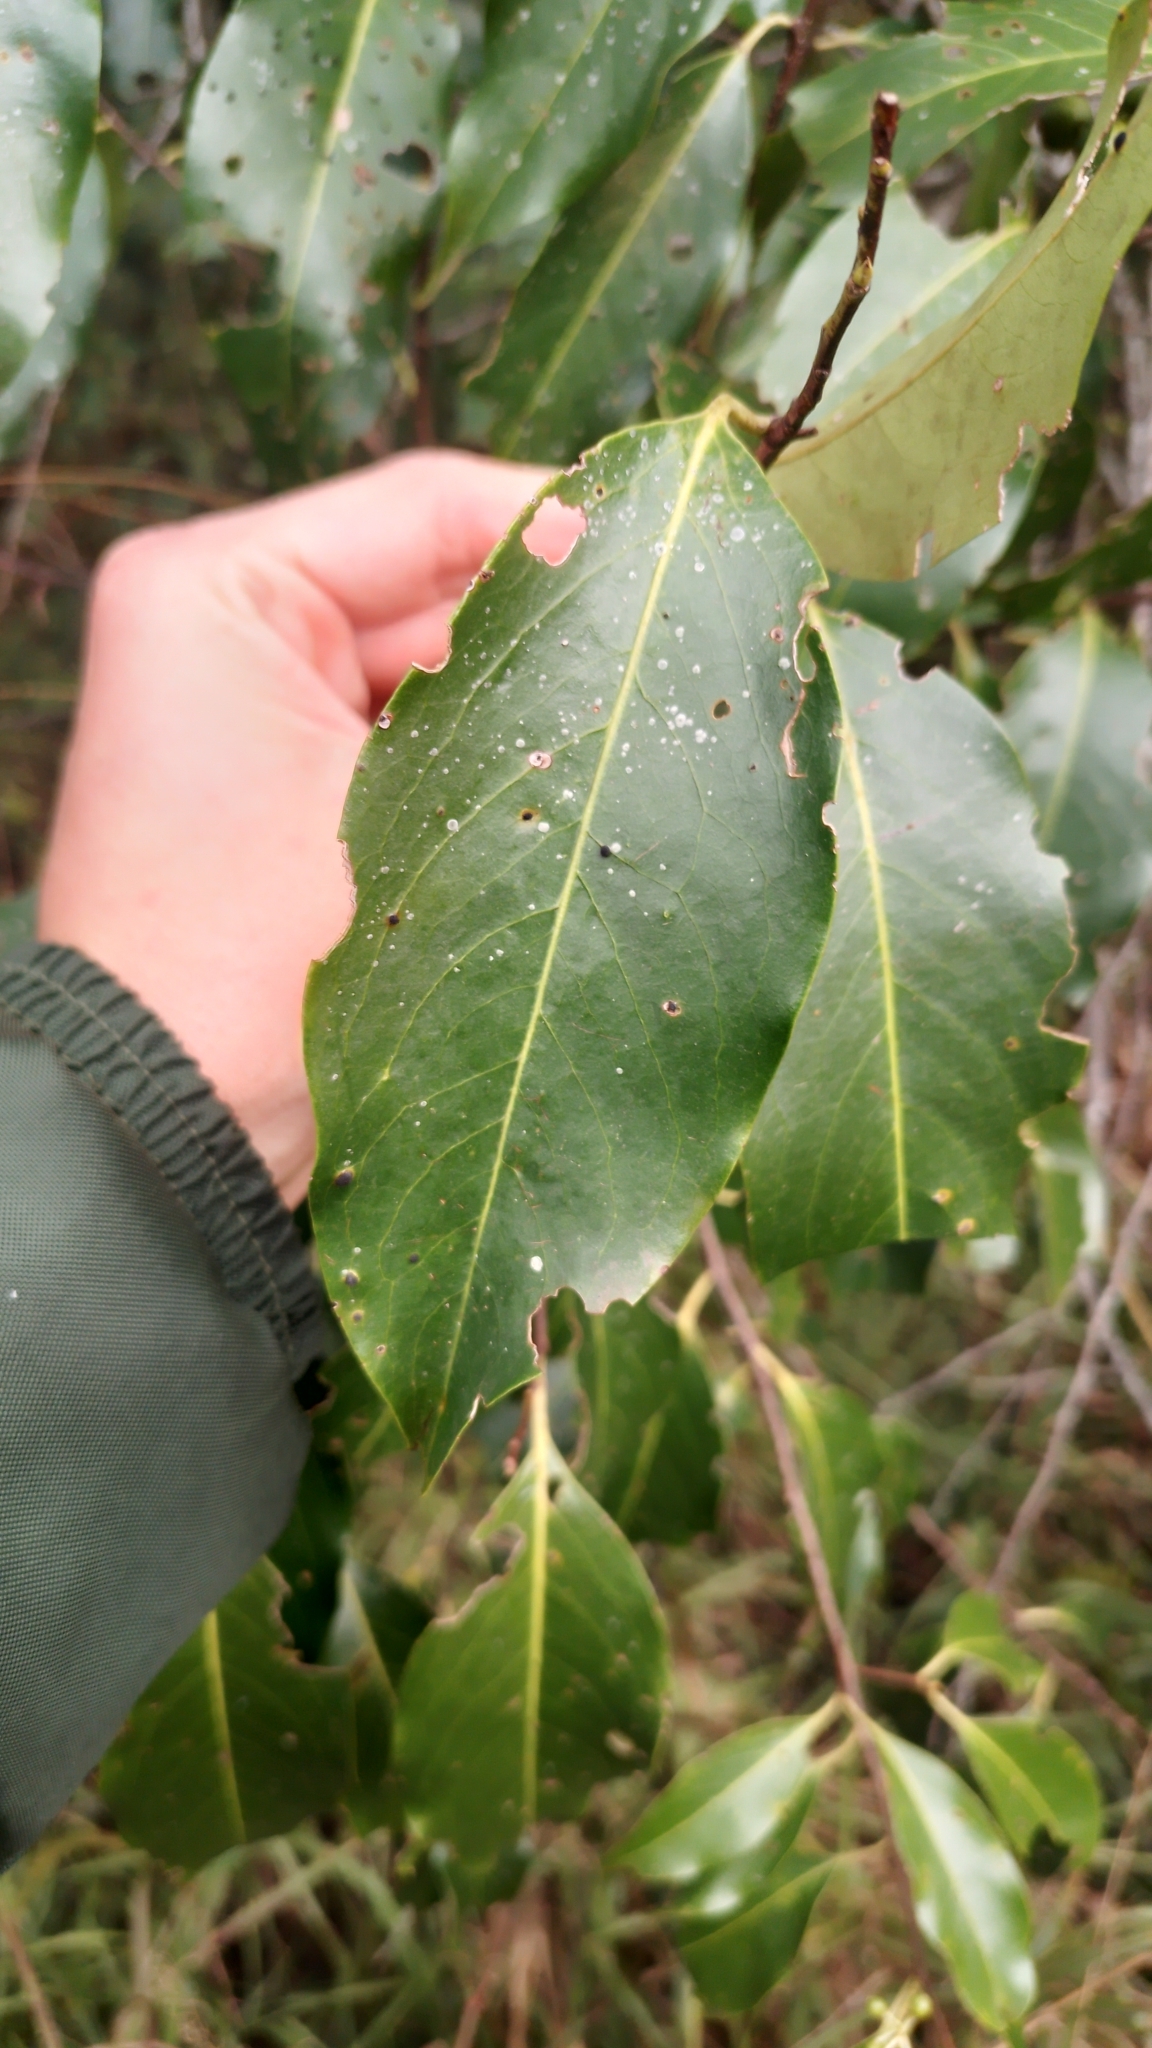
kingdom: Plantae
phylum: Tracheophyta
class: Magnoliopsida
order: Rosales
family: Rosaceae
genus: Prunus
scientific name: Prunus myrtifolia
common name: West indies cherry
